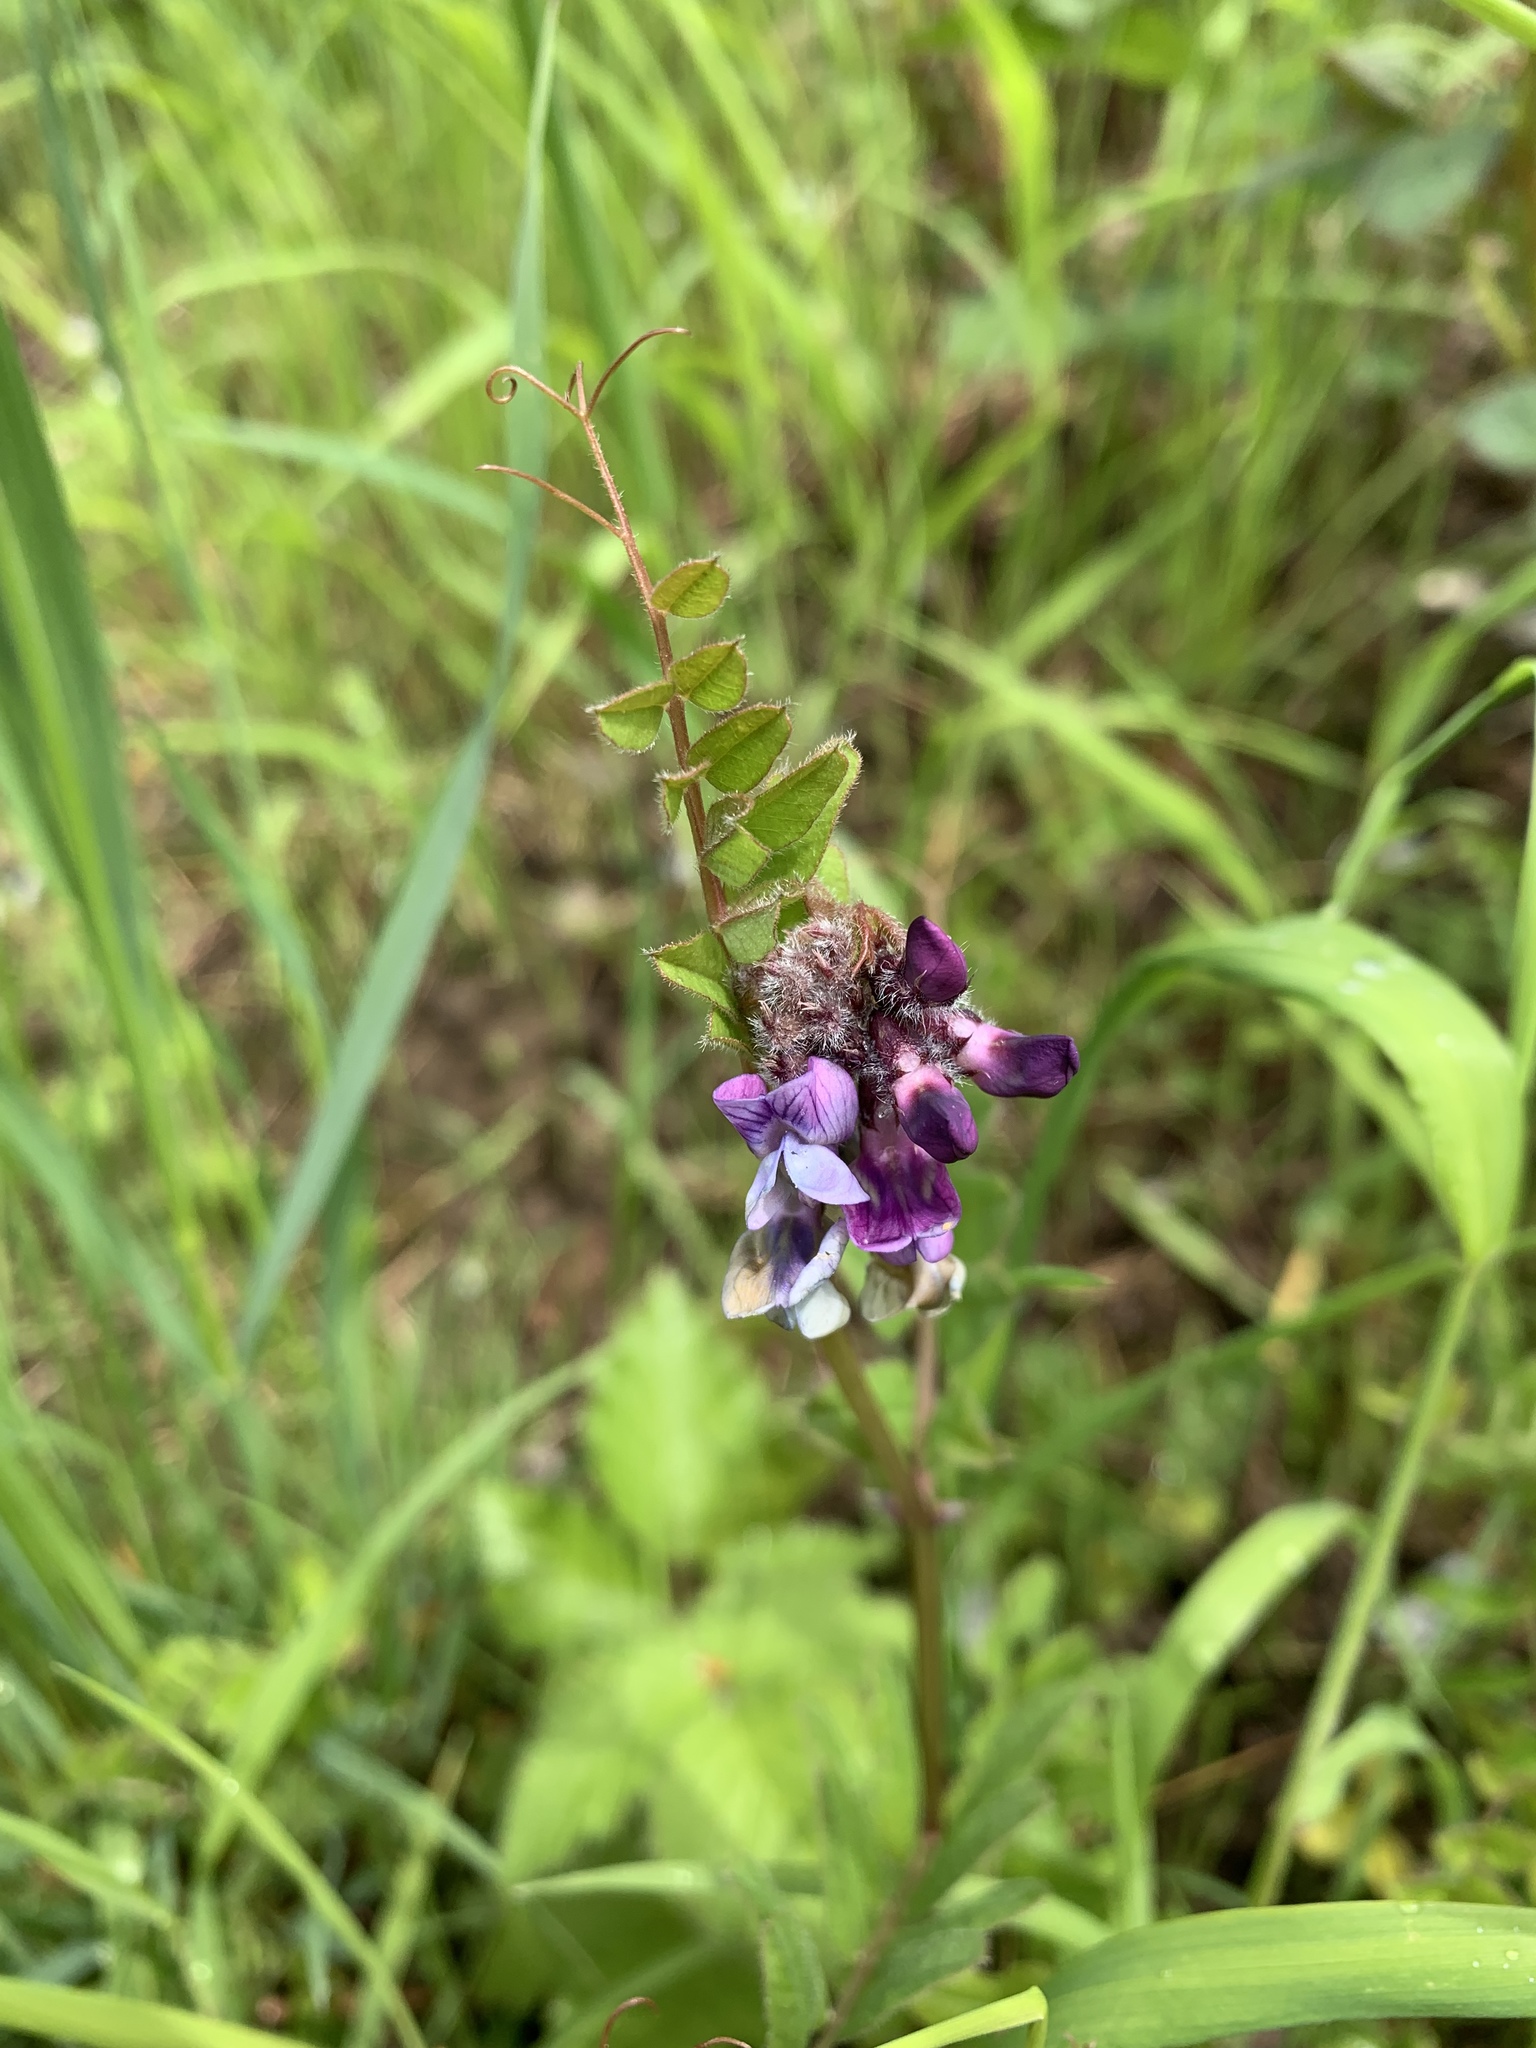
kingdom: Plantae
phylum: Tracheophyta
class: Magnoliopsida
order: Fabales
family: Fabaceae
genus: Vicia
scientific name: Vicia sepium
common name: Bush vetch
